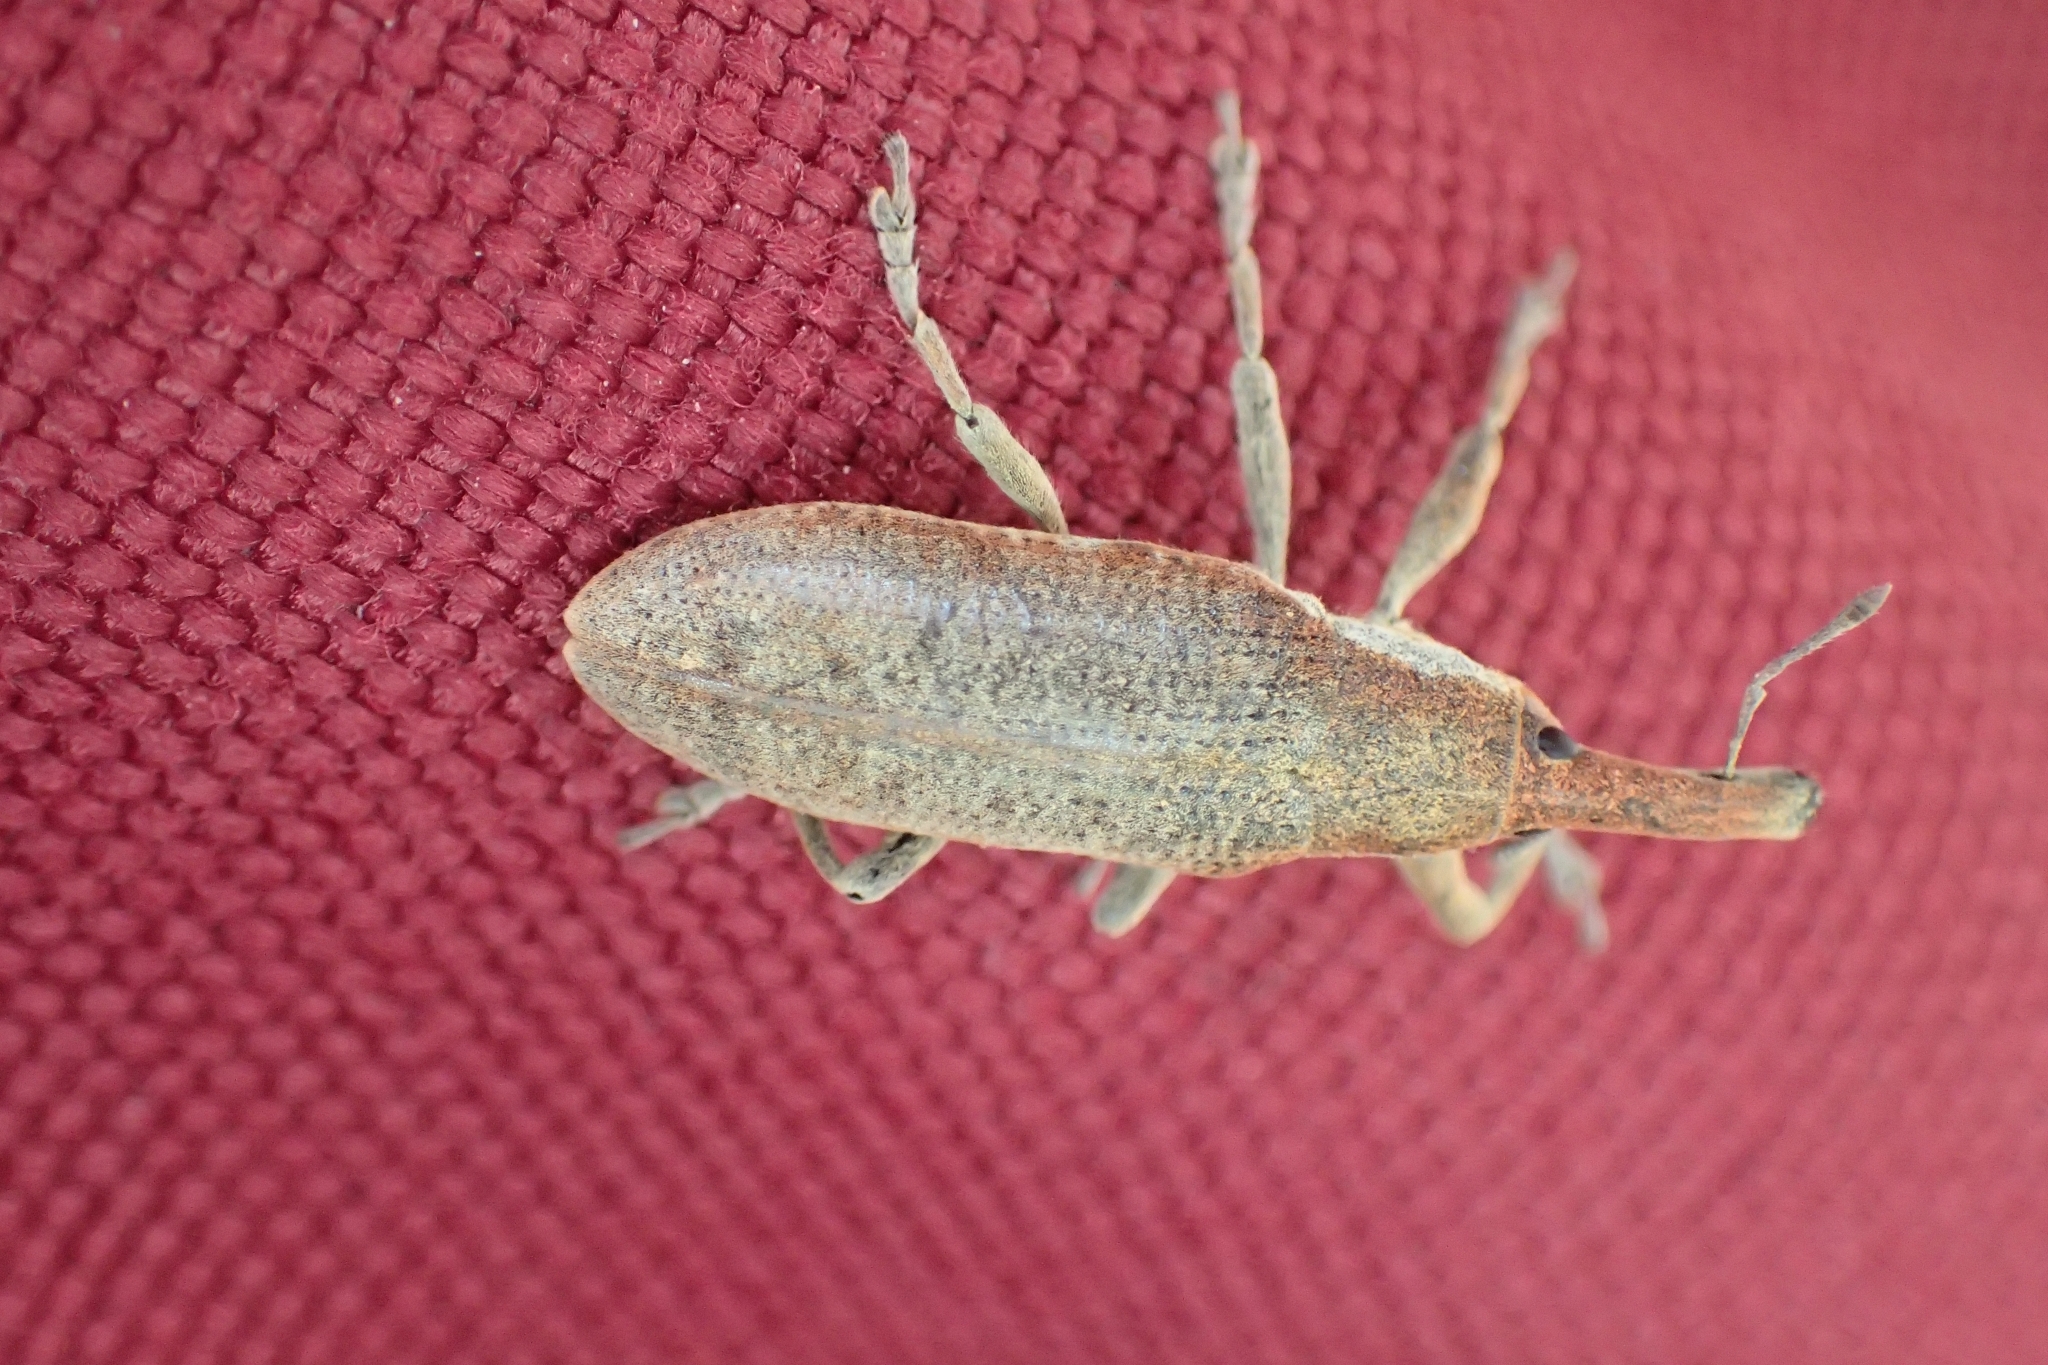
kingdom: Animalia
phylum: Arthropoda
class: Insecta
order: Coleoptera
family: Curculionidae
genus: Lixus
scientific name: Lixus pulverulentus
